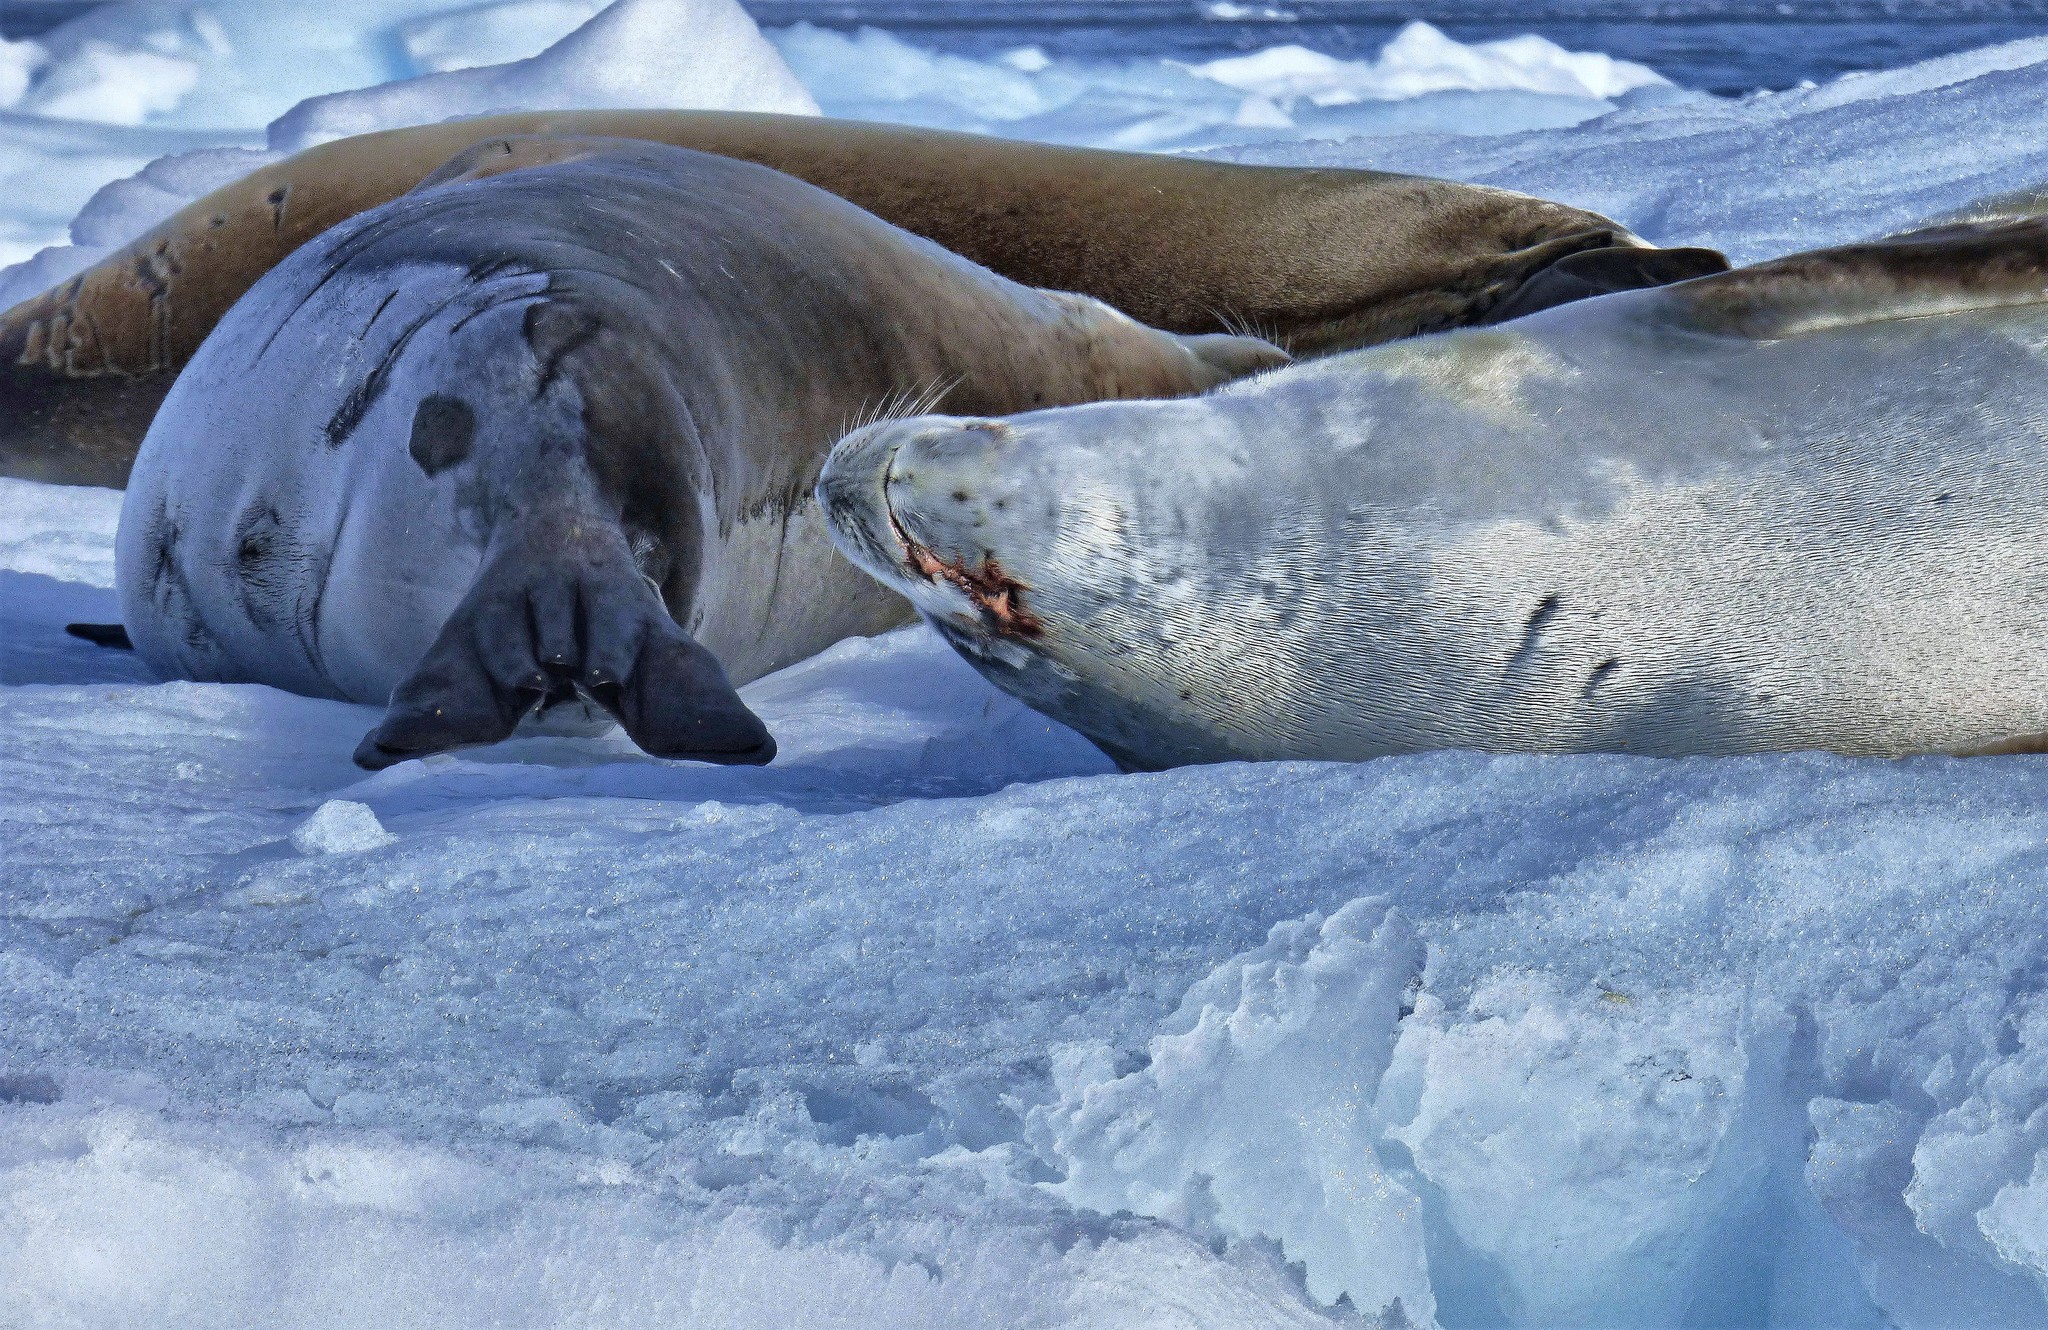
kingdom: Animalia
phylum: Chordata
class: Mammalia
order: Carnivora
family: Phocidae
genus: Lobodon
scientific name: Lobodon carcinophaga
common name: Crabeater seal
